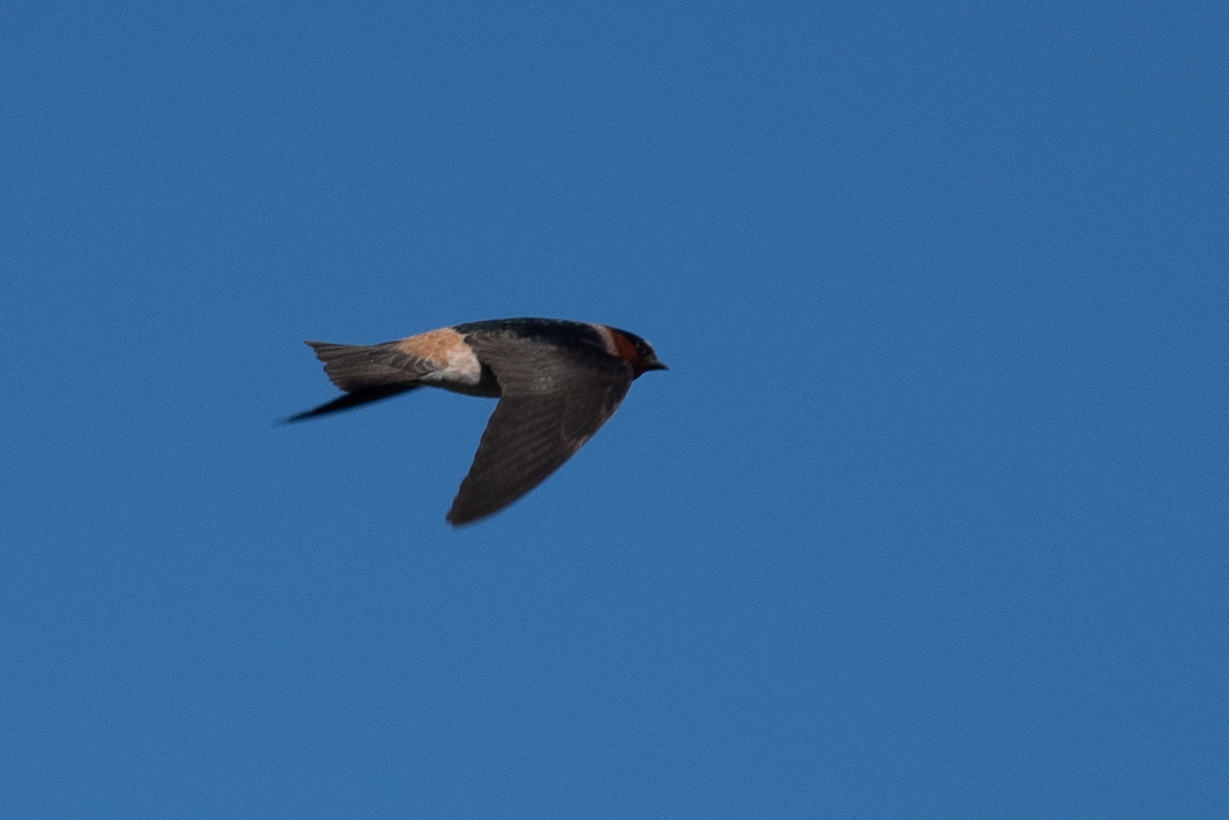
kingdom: Animalia
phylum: Chordata
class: Aves
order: Passeriformes
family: Hirundinidae
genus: Petrochelidon
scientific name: Petrochelidon pyrrhonota
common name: American cliff swallow
